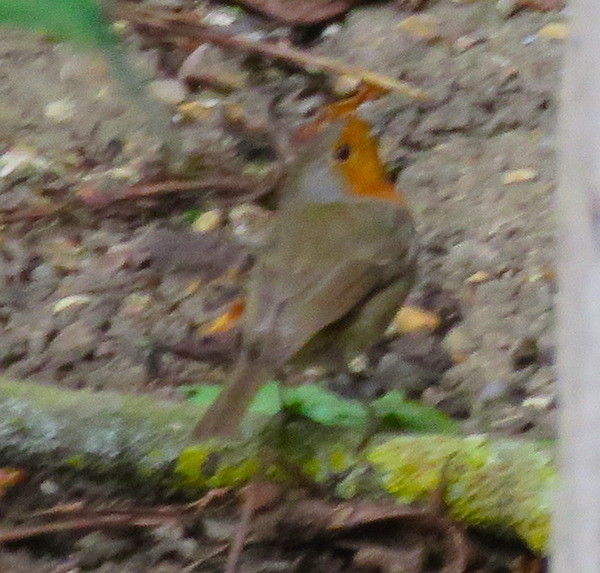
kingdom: Animalia
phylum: Chordata
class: Aves
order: Passeriformes
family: Muscicapidae
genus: Erithacus
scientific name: Erithacus rubecula
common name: European robin
